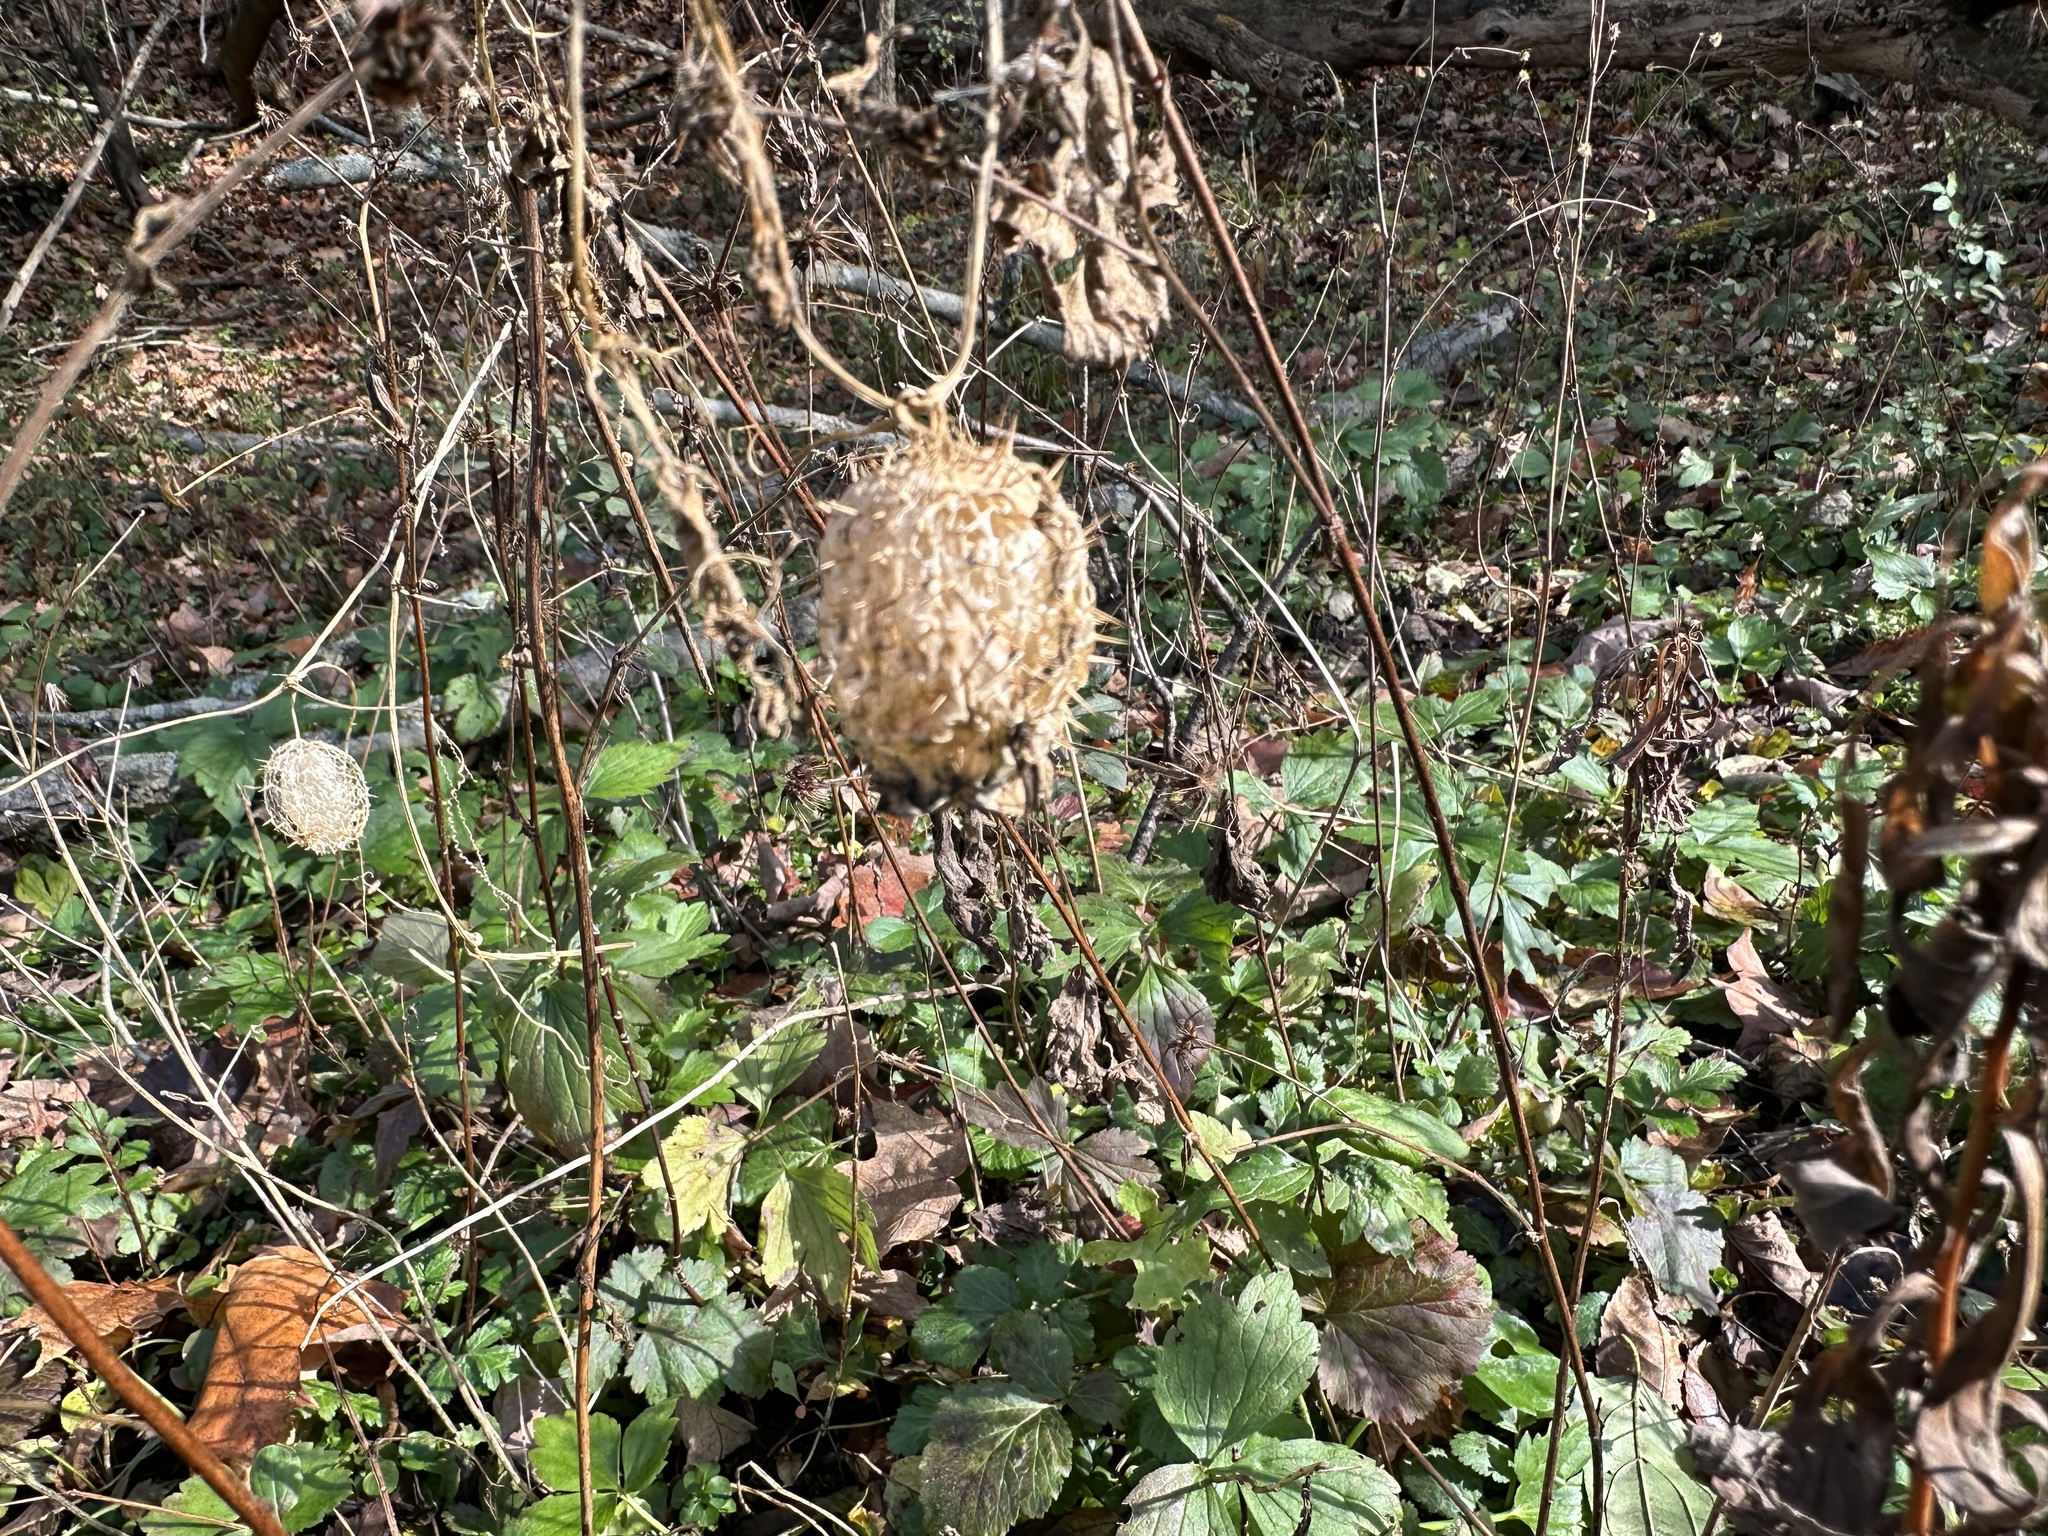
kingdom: Plantae
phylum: Tracheophyta
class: Magnoliopsida
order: Cucurbitales
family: Cucurbitaceae
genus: Echinocystis
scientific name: Echinocystis lobata
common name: Wild cucumber
